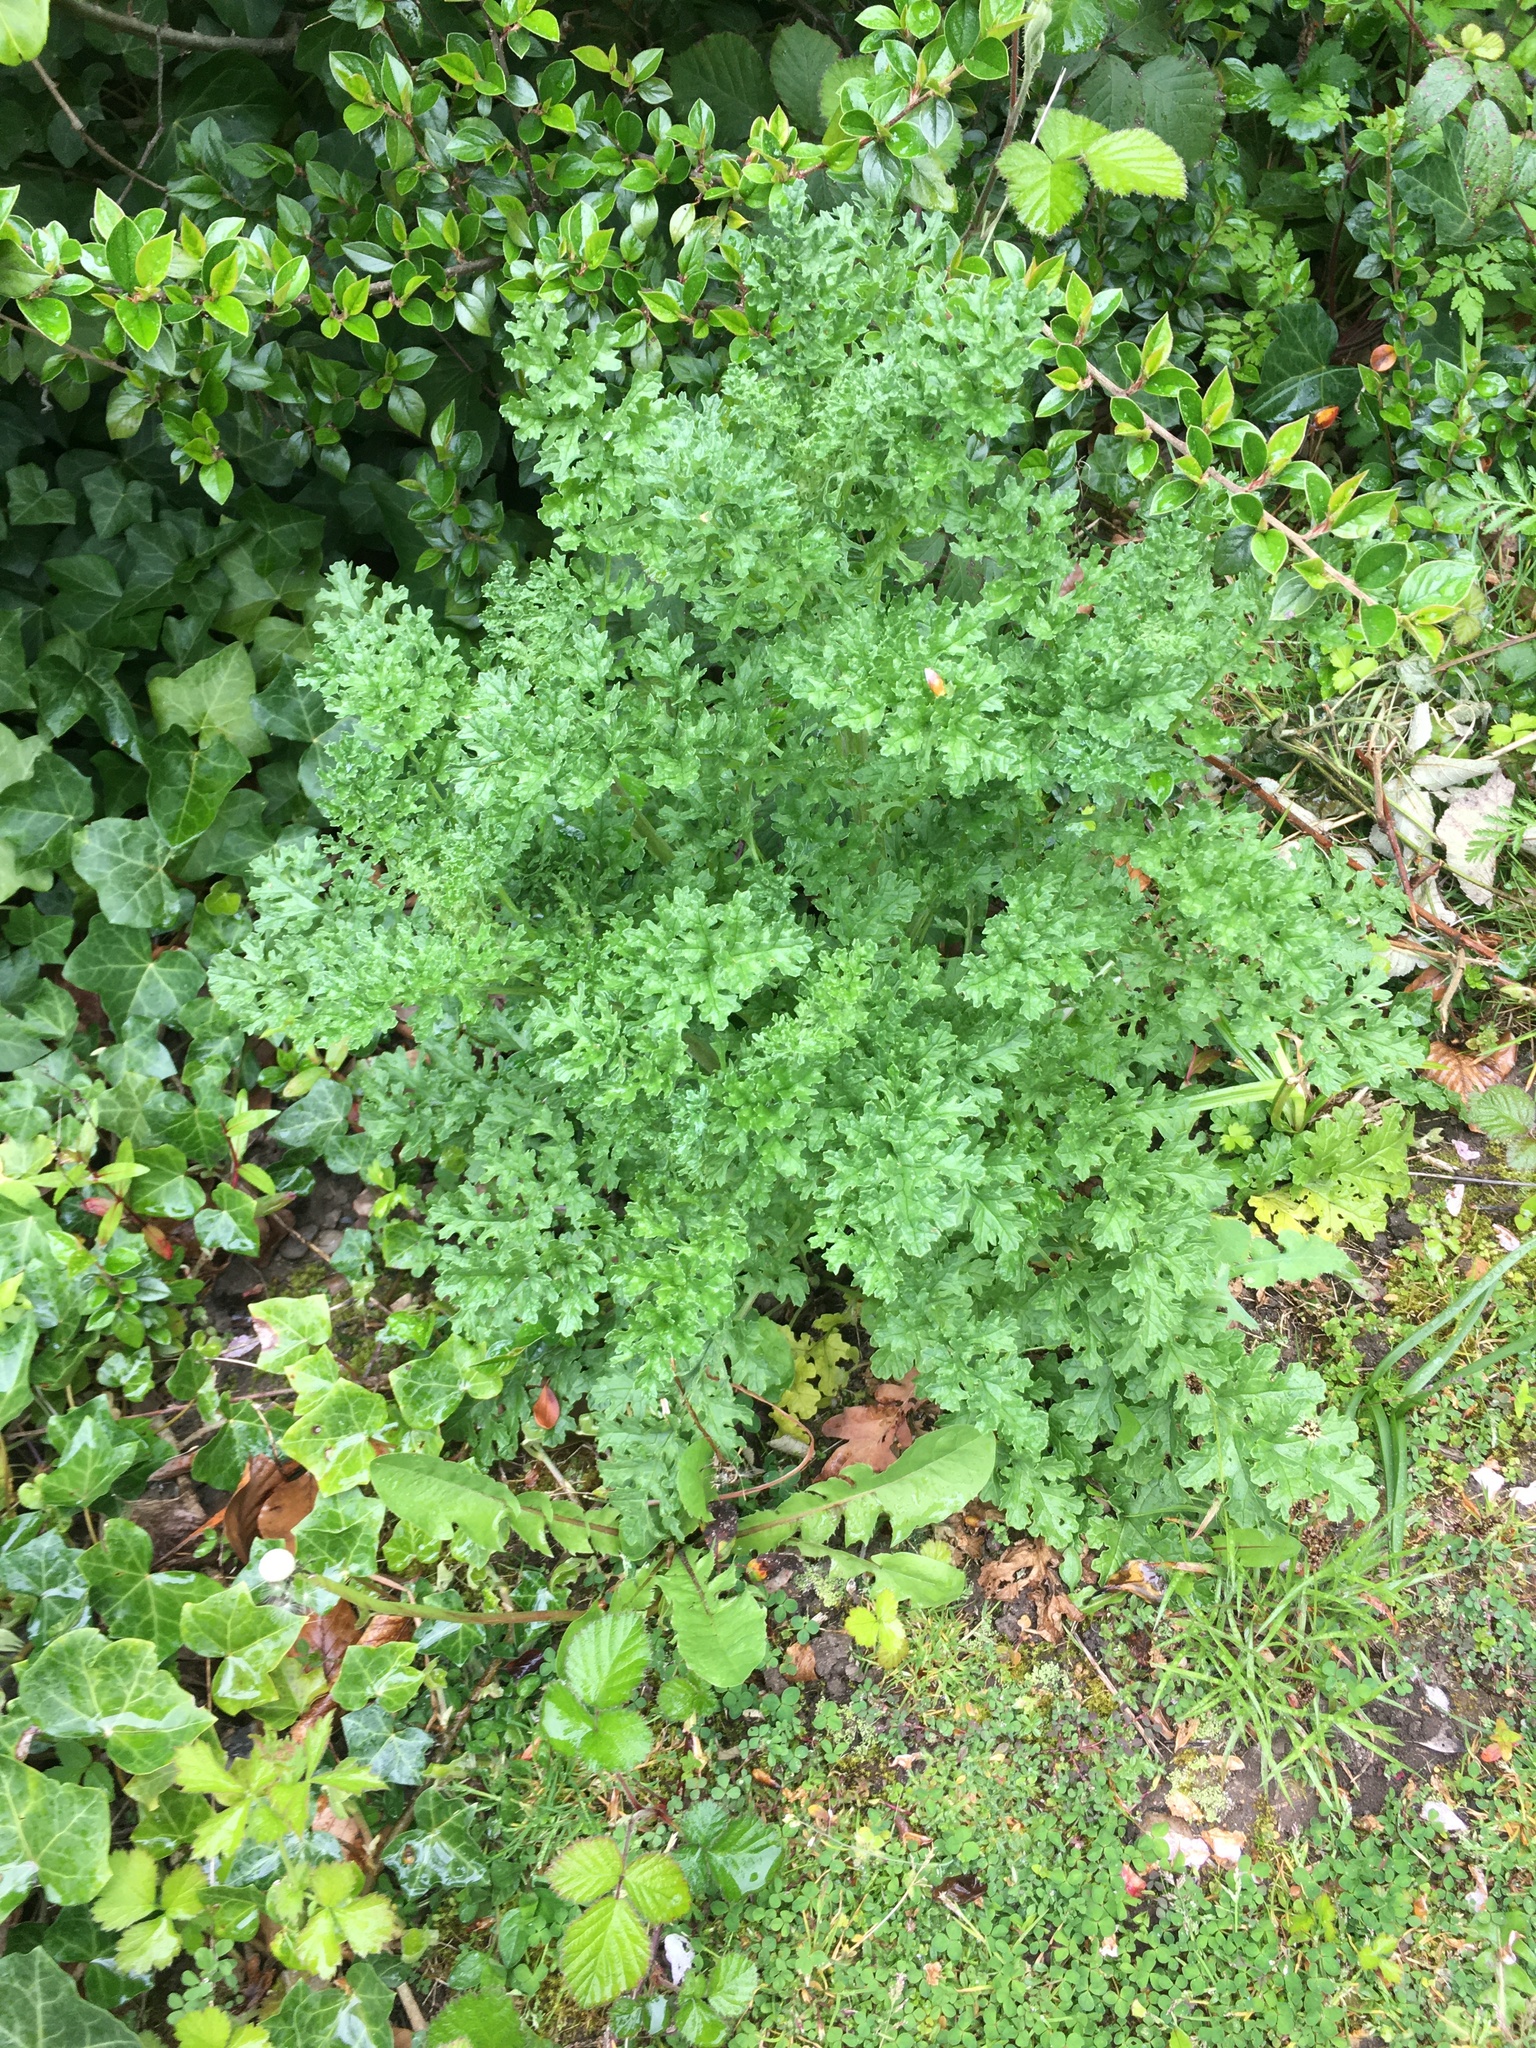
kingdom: Plantae
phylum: Tracheophyta
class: Magnoliopsida
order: Asterales
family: Asteraceae
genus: Jacobaea
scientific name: Jacobaea vulgaris
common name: Stinking willie
